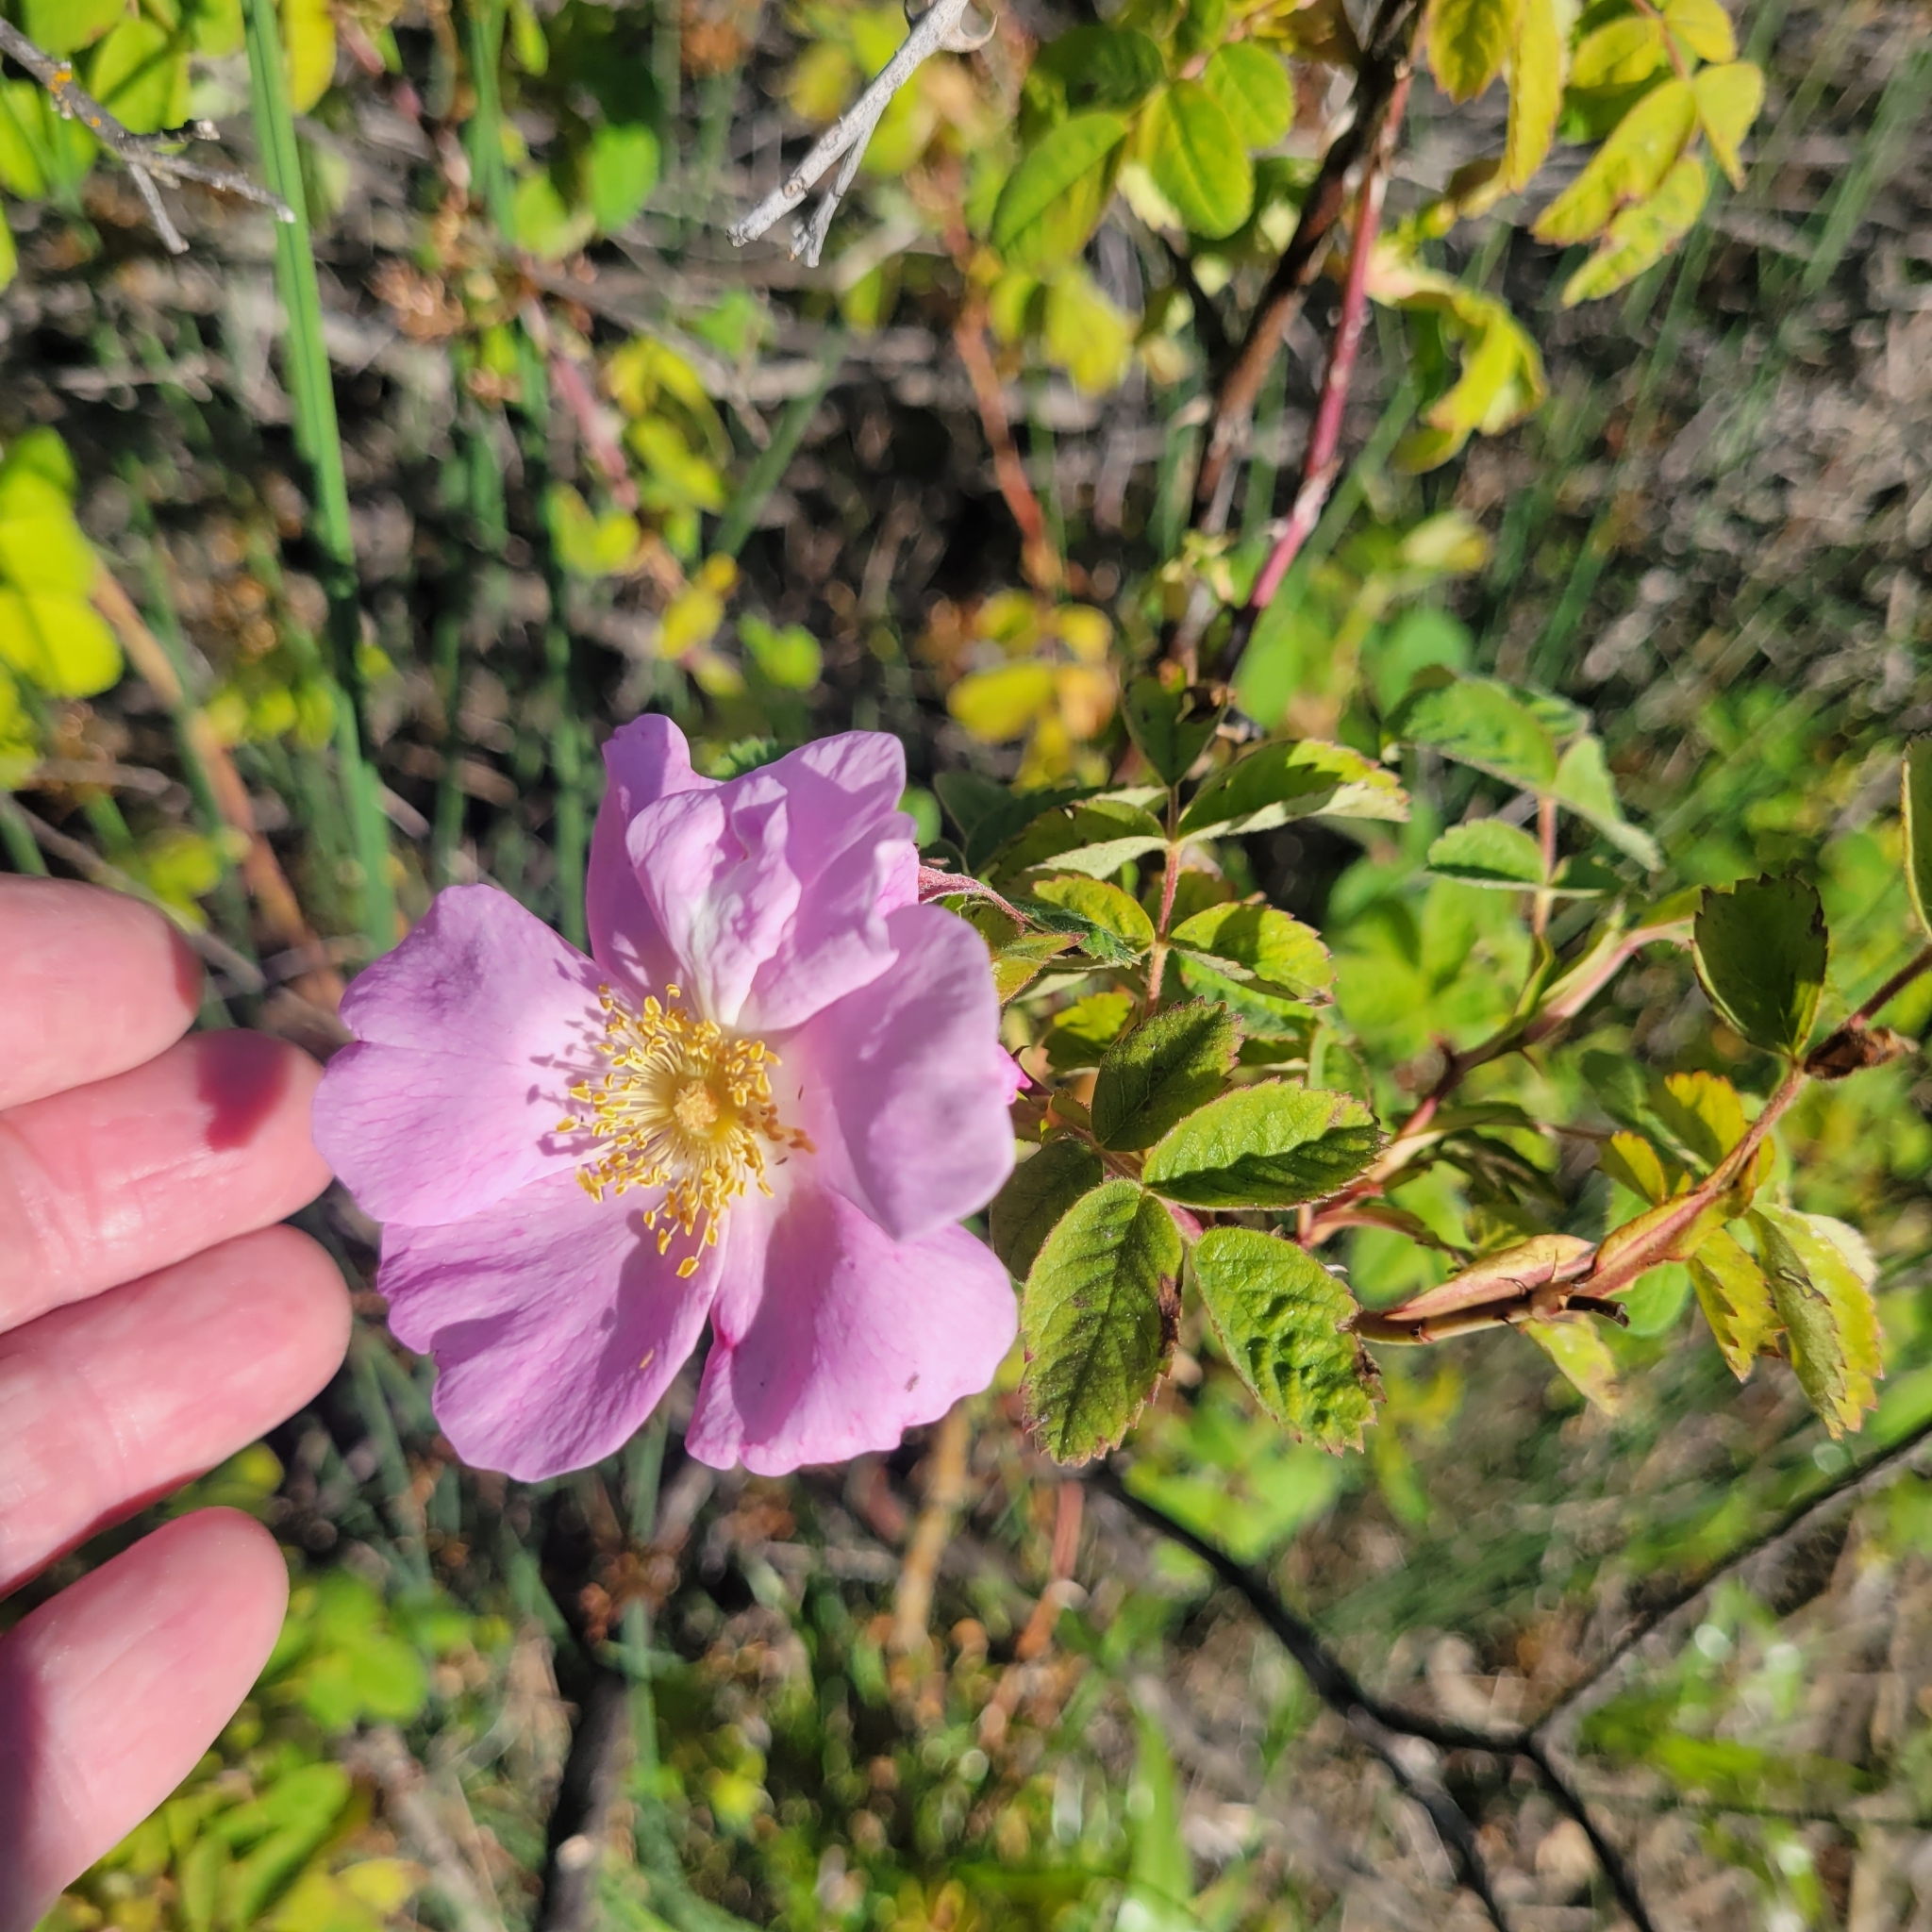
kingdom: Plantae
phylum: Tracheophyta
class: Magnoliopsida
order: Rosales
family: Rosaceae
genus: Rosa
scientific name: Rosa californica
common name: California rose
